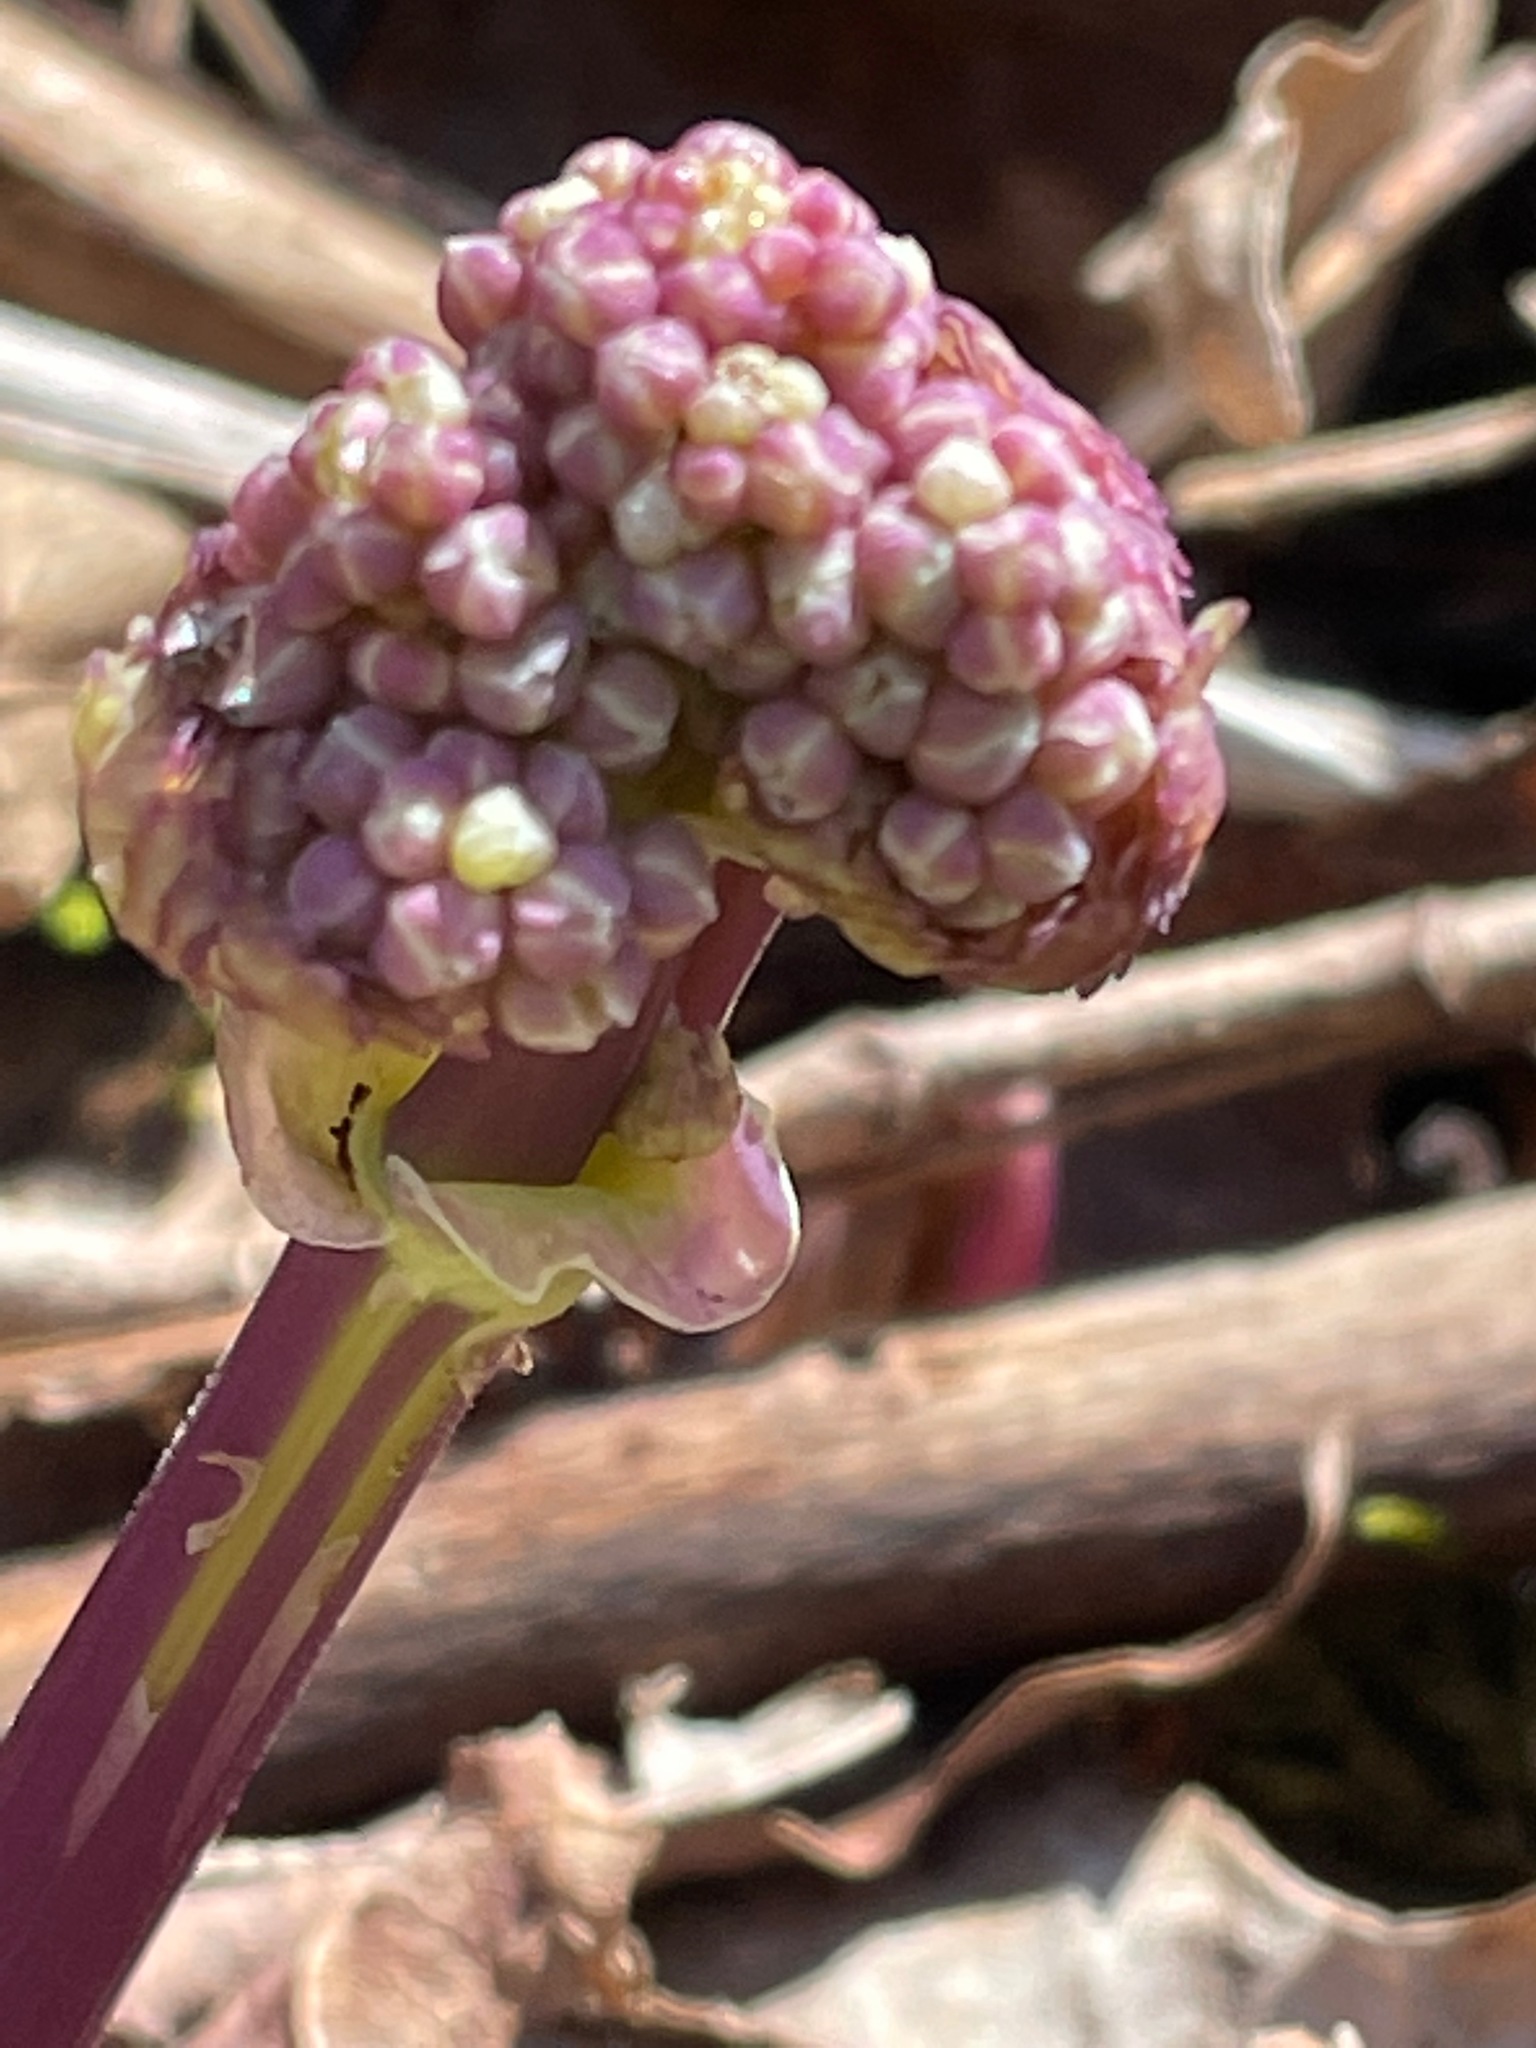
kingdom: Plantae
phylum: Tracheophyta
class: Magnoliopsida
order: Ranunculales
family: Ranunculaceae
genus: Thalictrum
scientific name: Thalictrum dioicum
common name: Early meadow-rue
